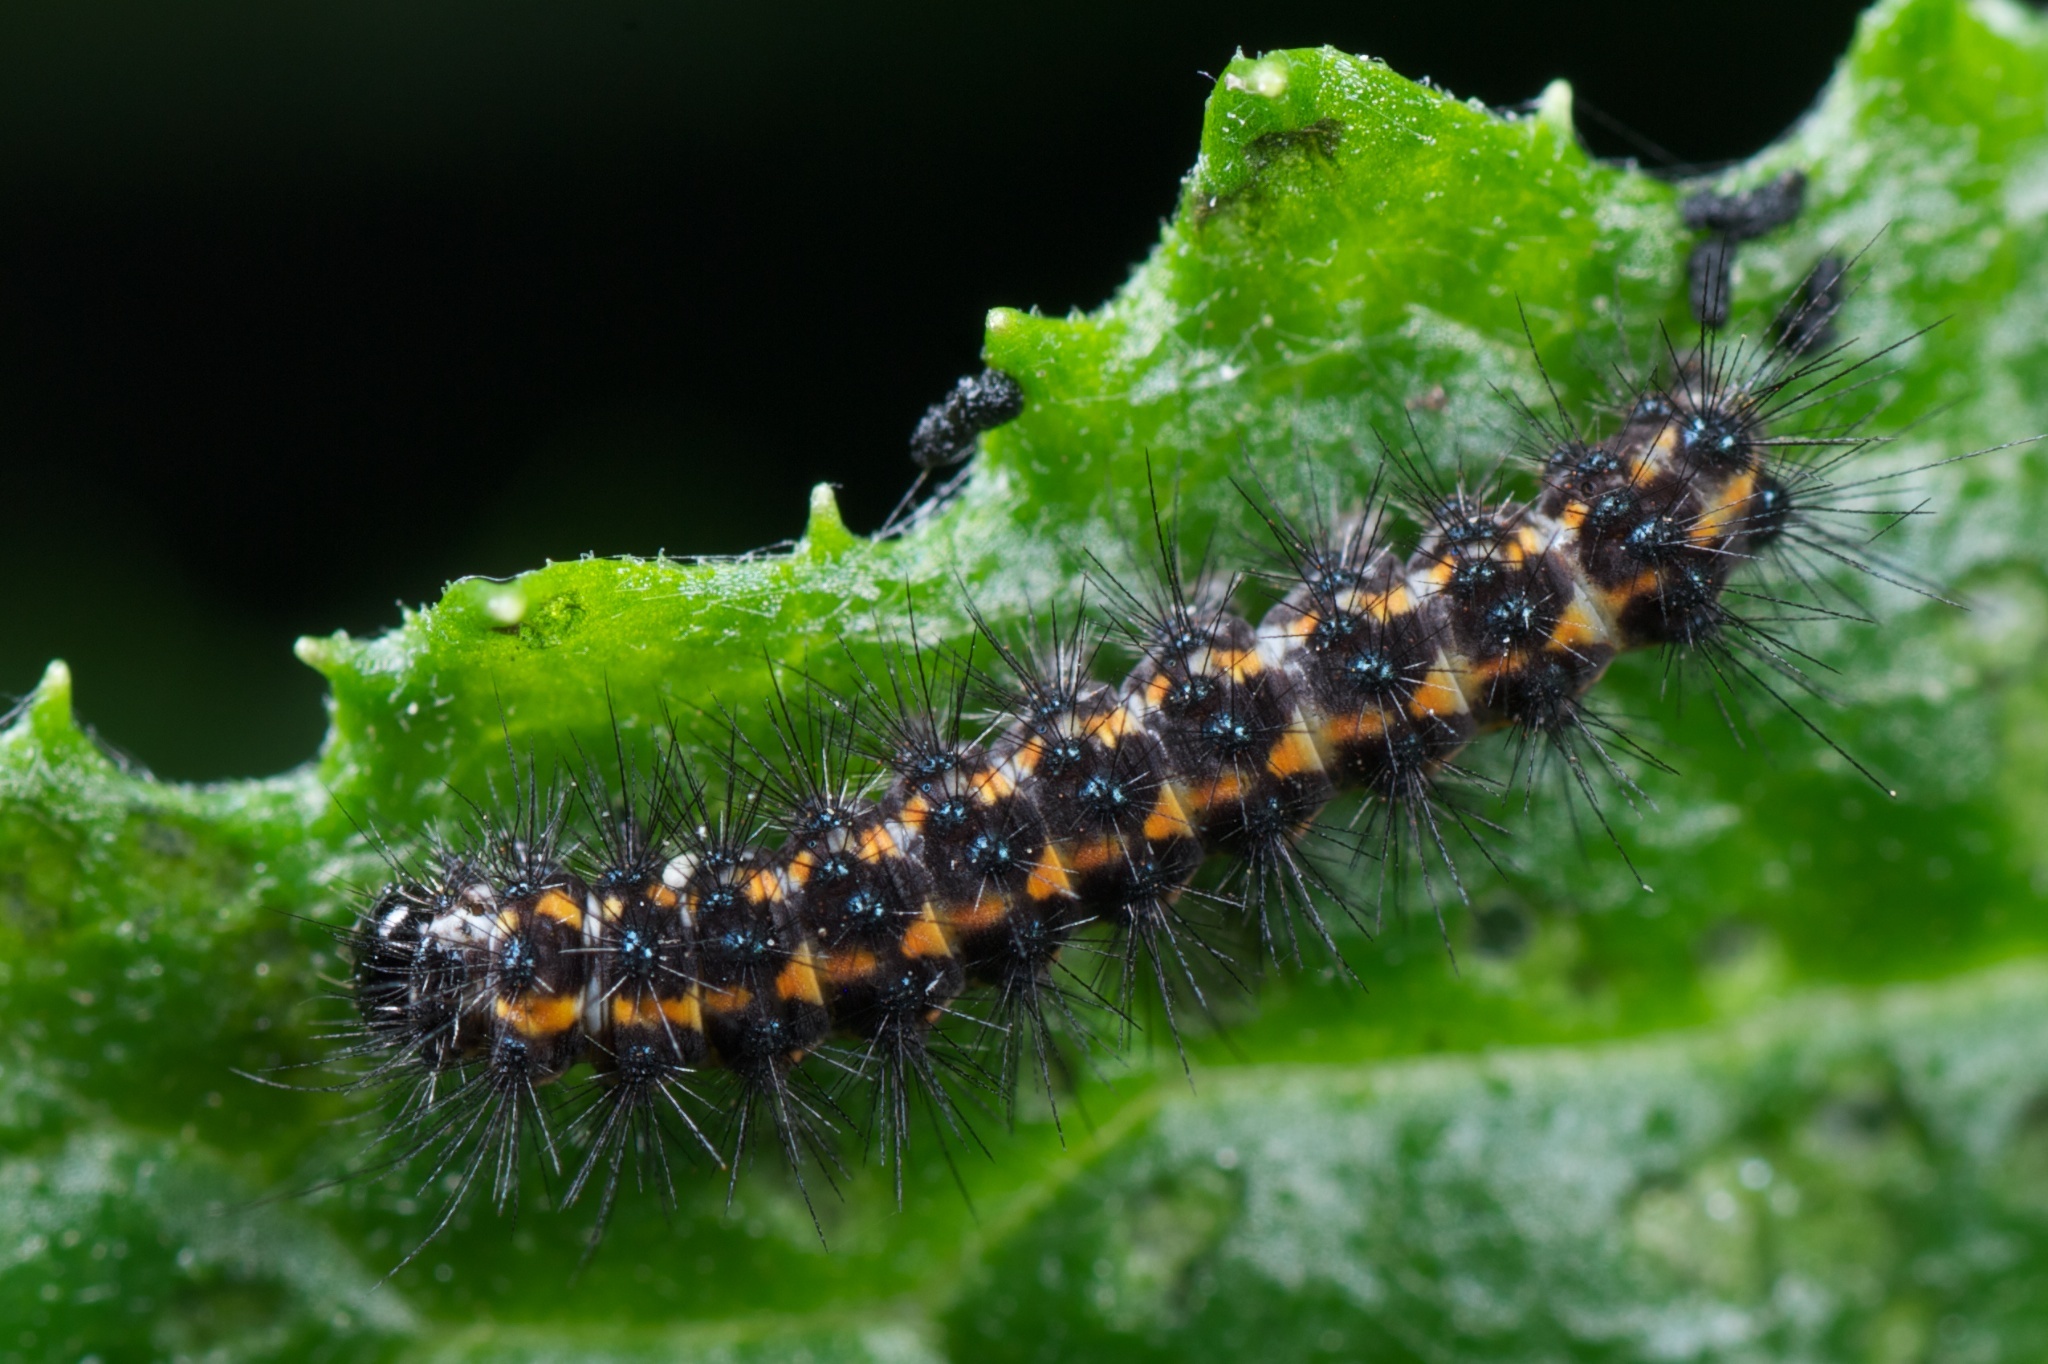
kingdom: Animalia
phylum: Arthropoda
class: Insecta
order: Lepidoptera
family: Erebidae
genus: Nyctemera
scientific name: Nyctemera annulatum
